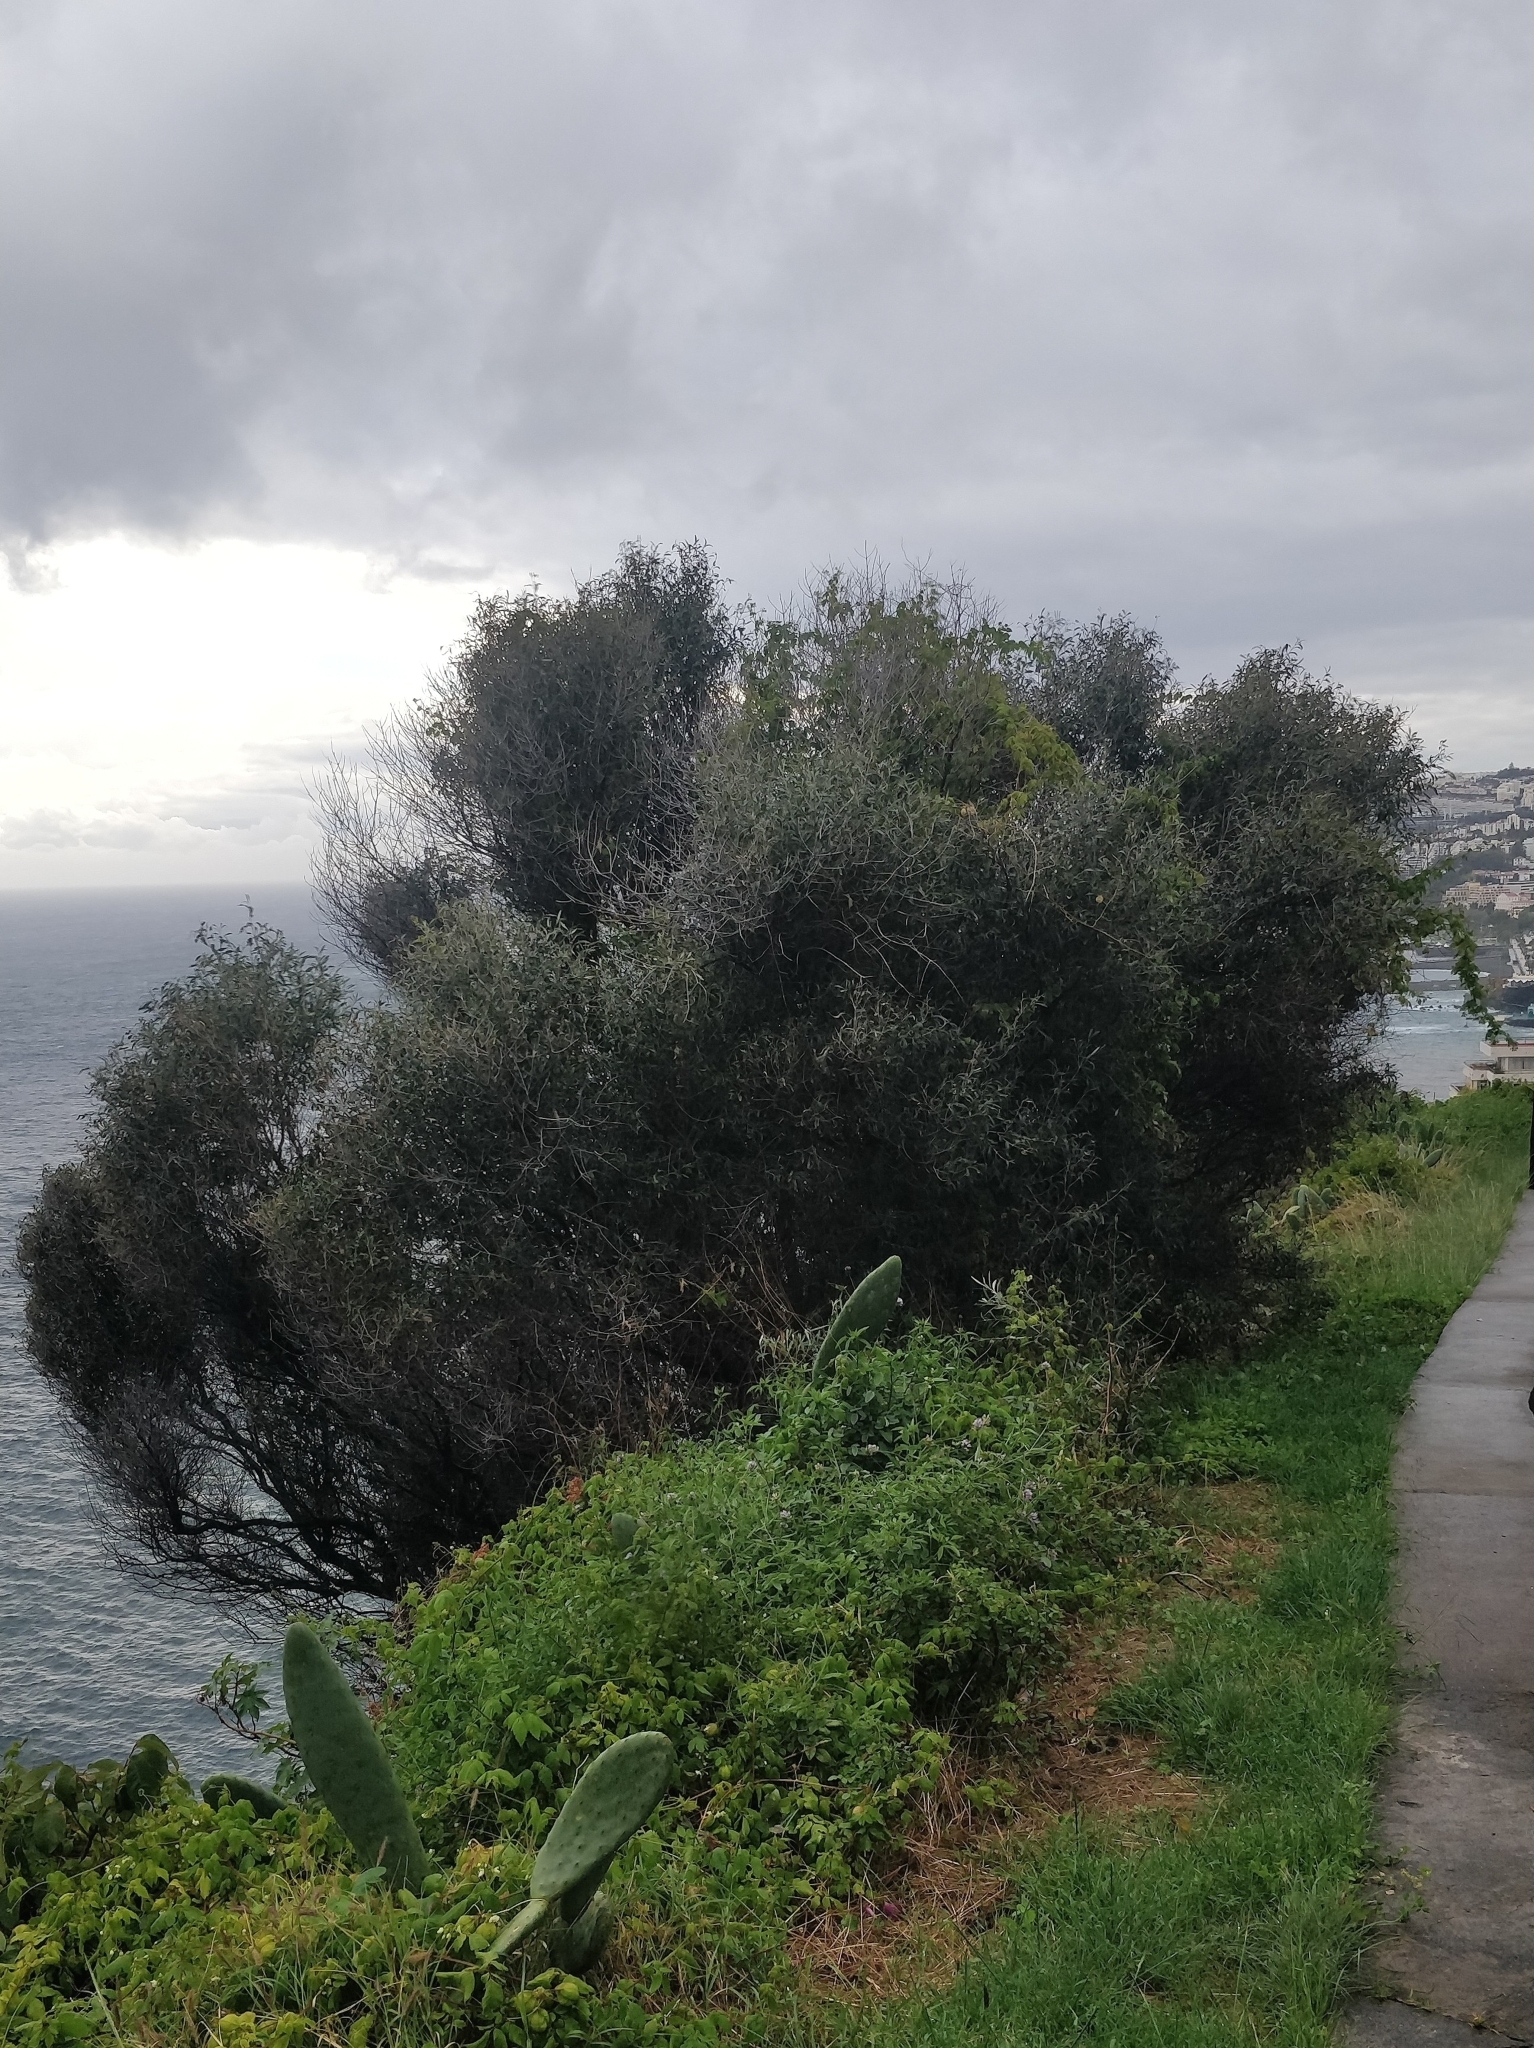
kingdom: Plantae
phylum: Tracheophyta
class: Magnoliopsida
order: Lamiales
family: Oleaceae
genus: Olea
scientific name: Olea europaea
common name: Olive
